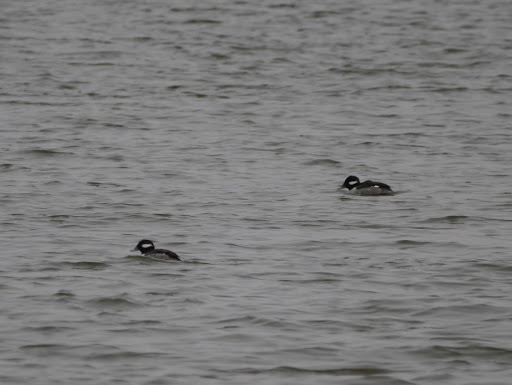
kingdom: Animalia
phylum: Chordata
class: Aves
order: Anseriformes
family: Anatidae
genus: Bucephala
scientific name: Bucephala albeola
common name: Bufflehead
